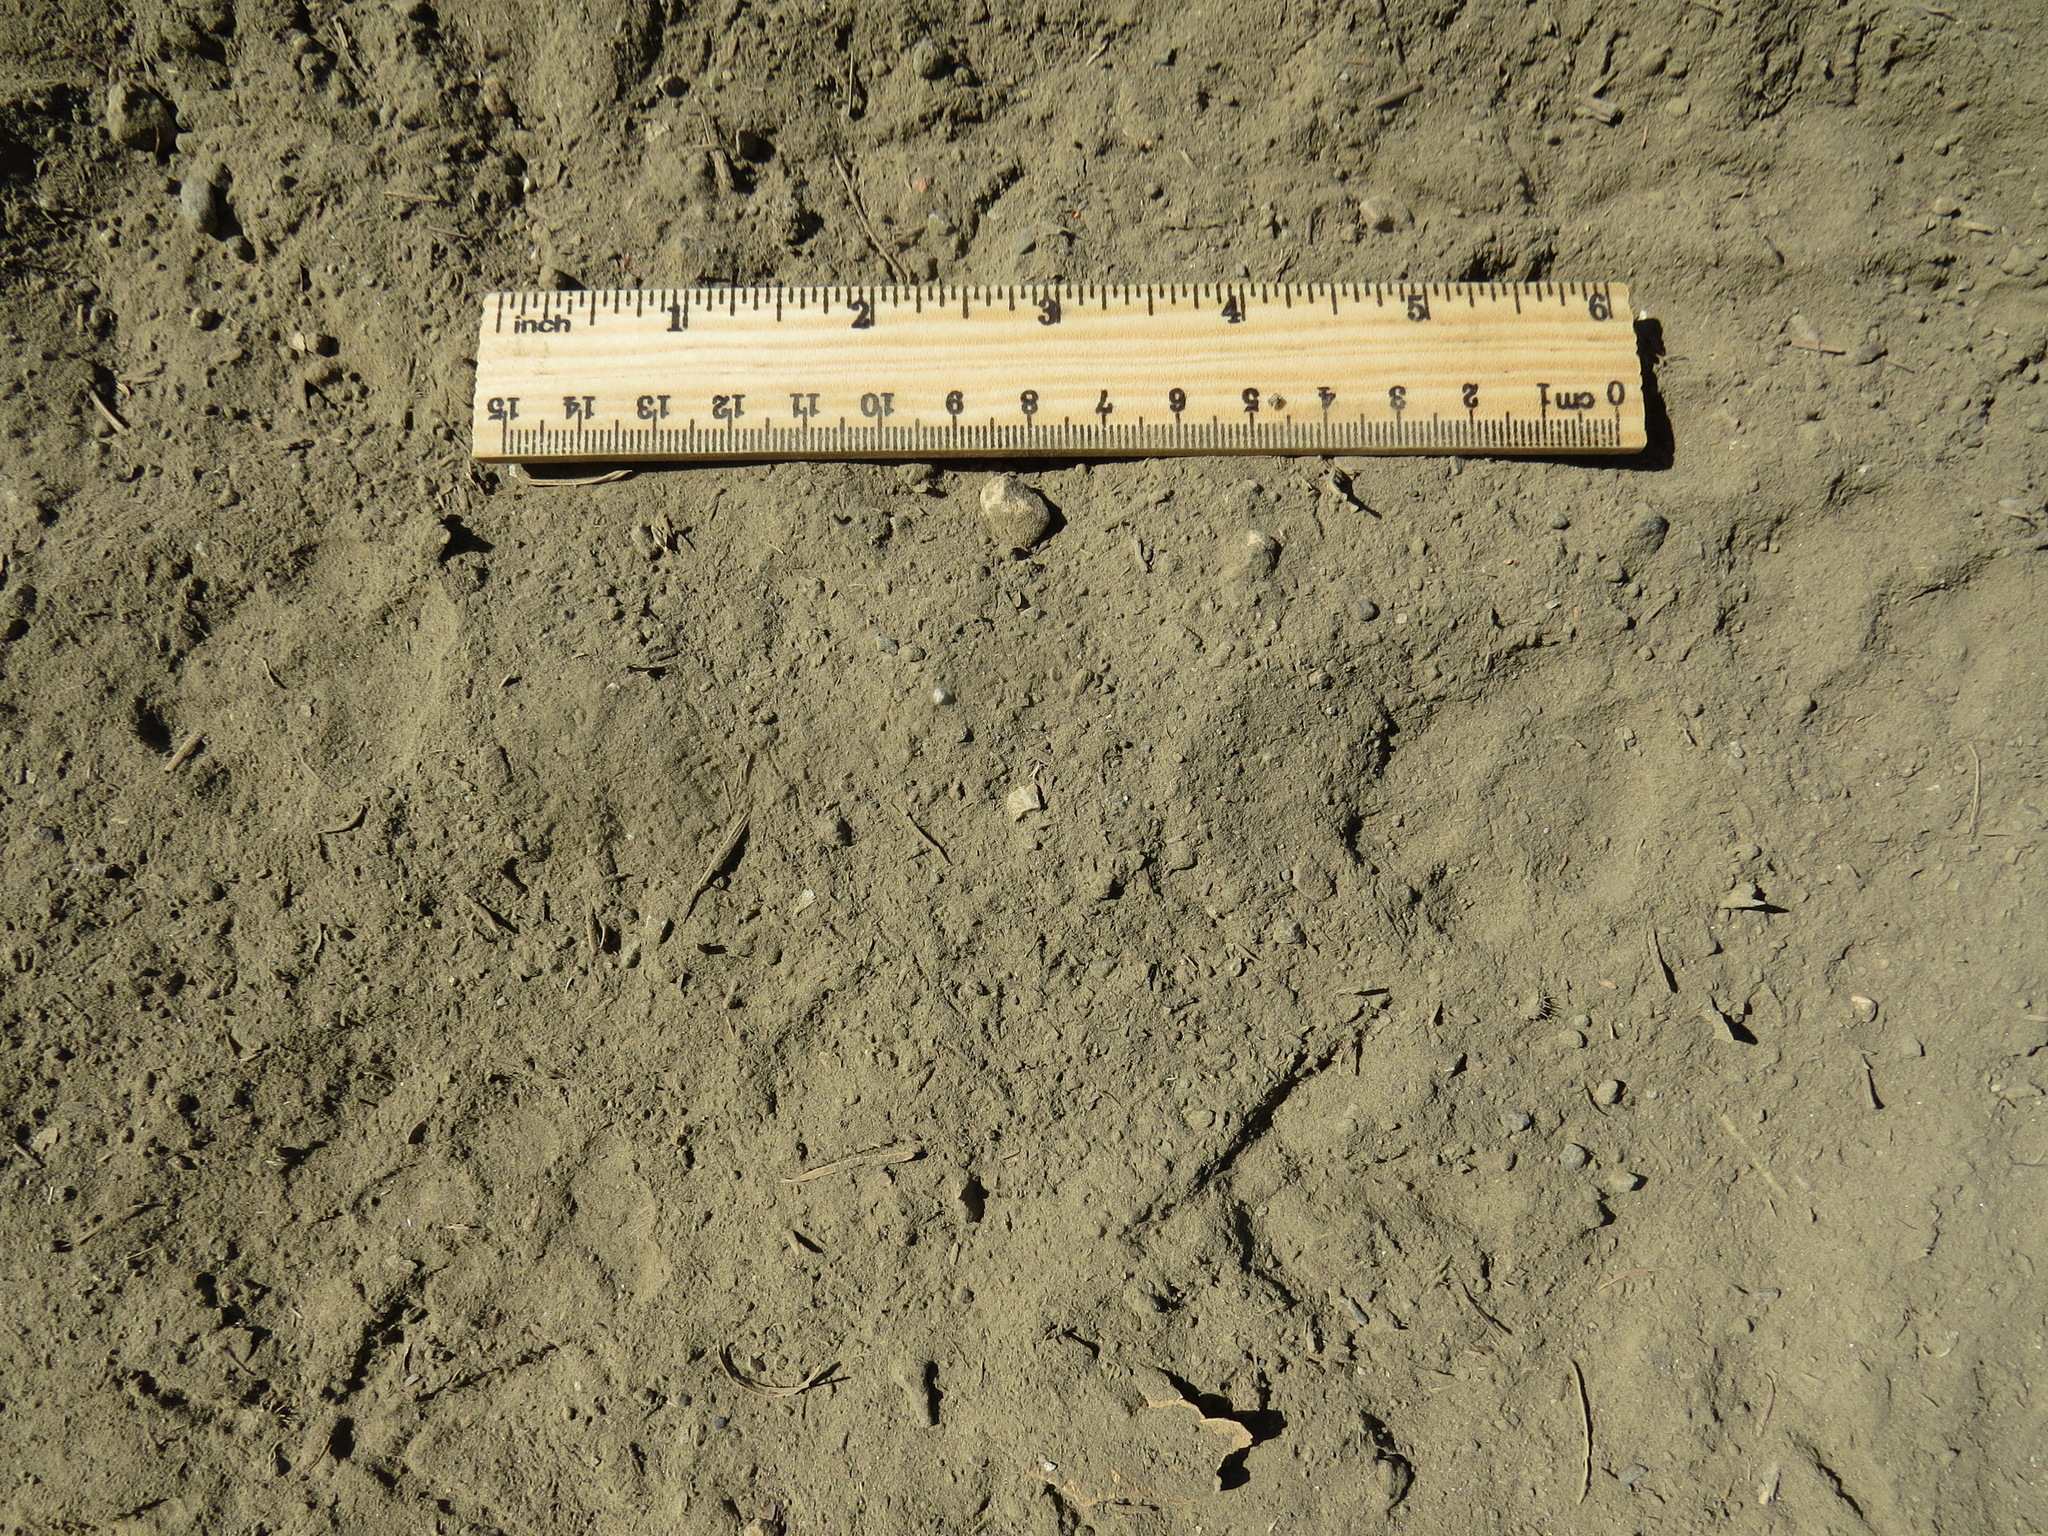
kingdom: Animalia
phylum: Chordata
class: Mammalia
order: Carnivora
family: Felidae
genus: Lynx
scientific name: Lynx rufus
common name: Bobcat
